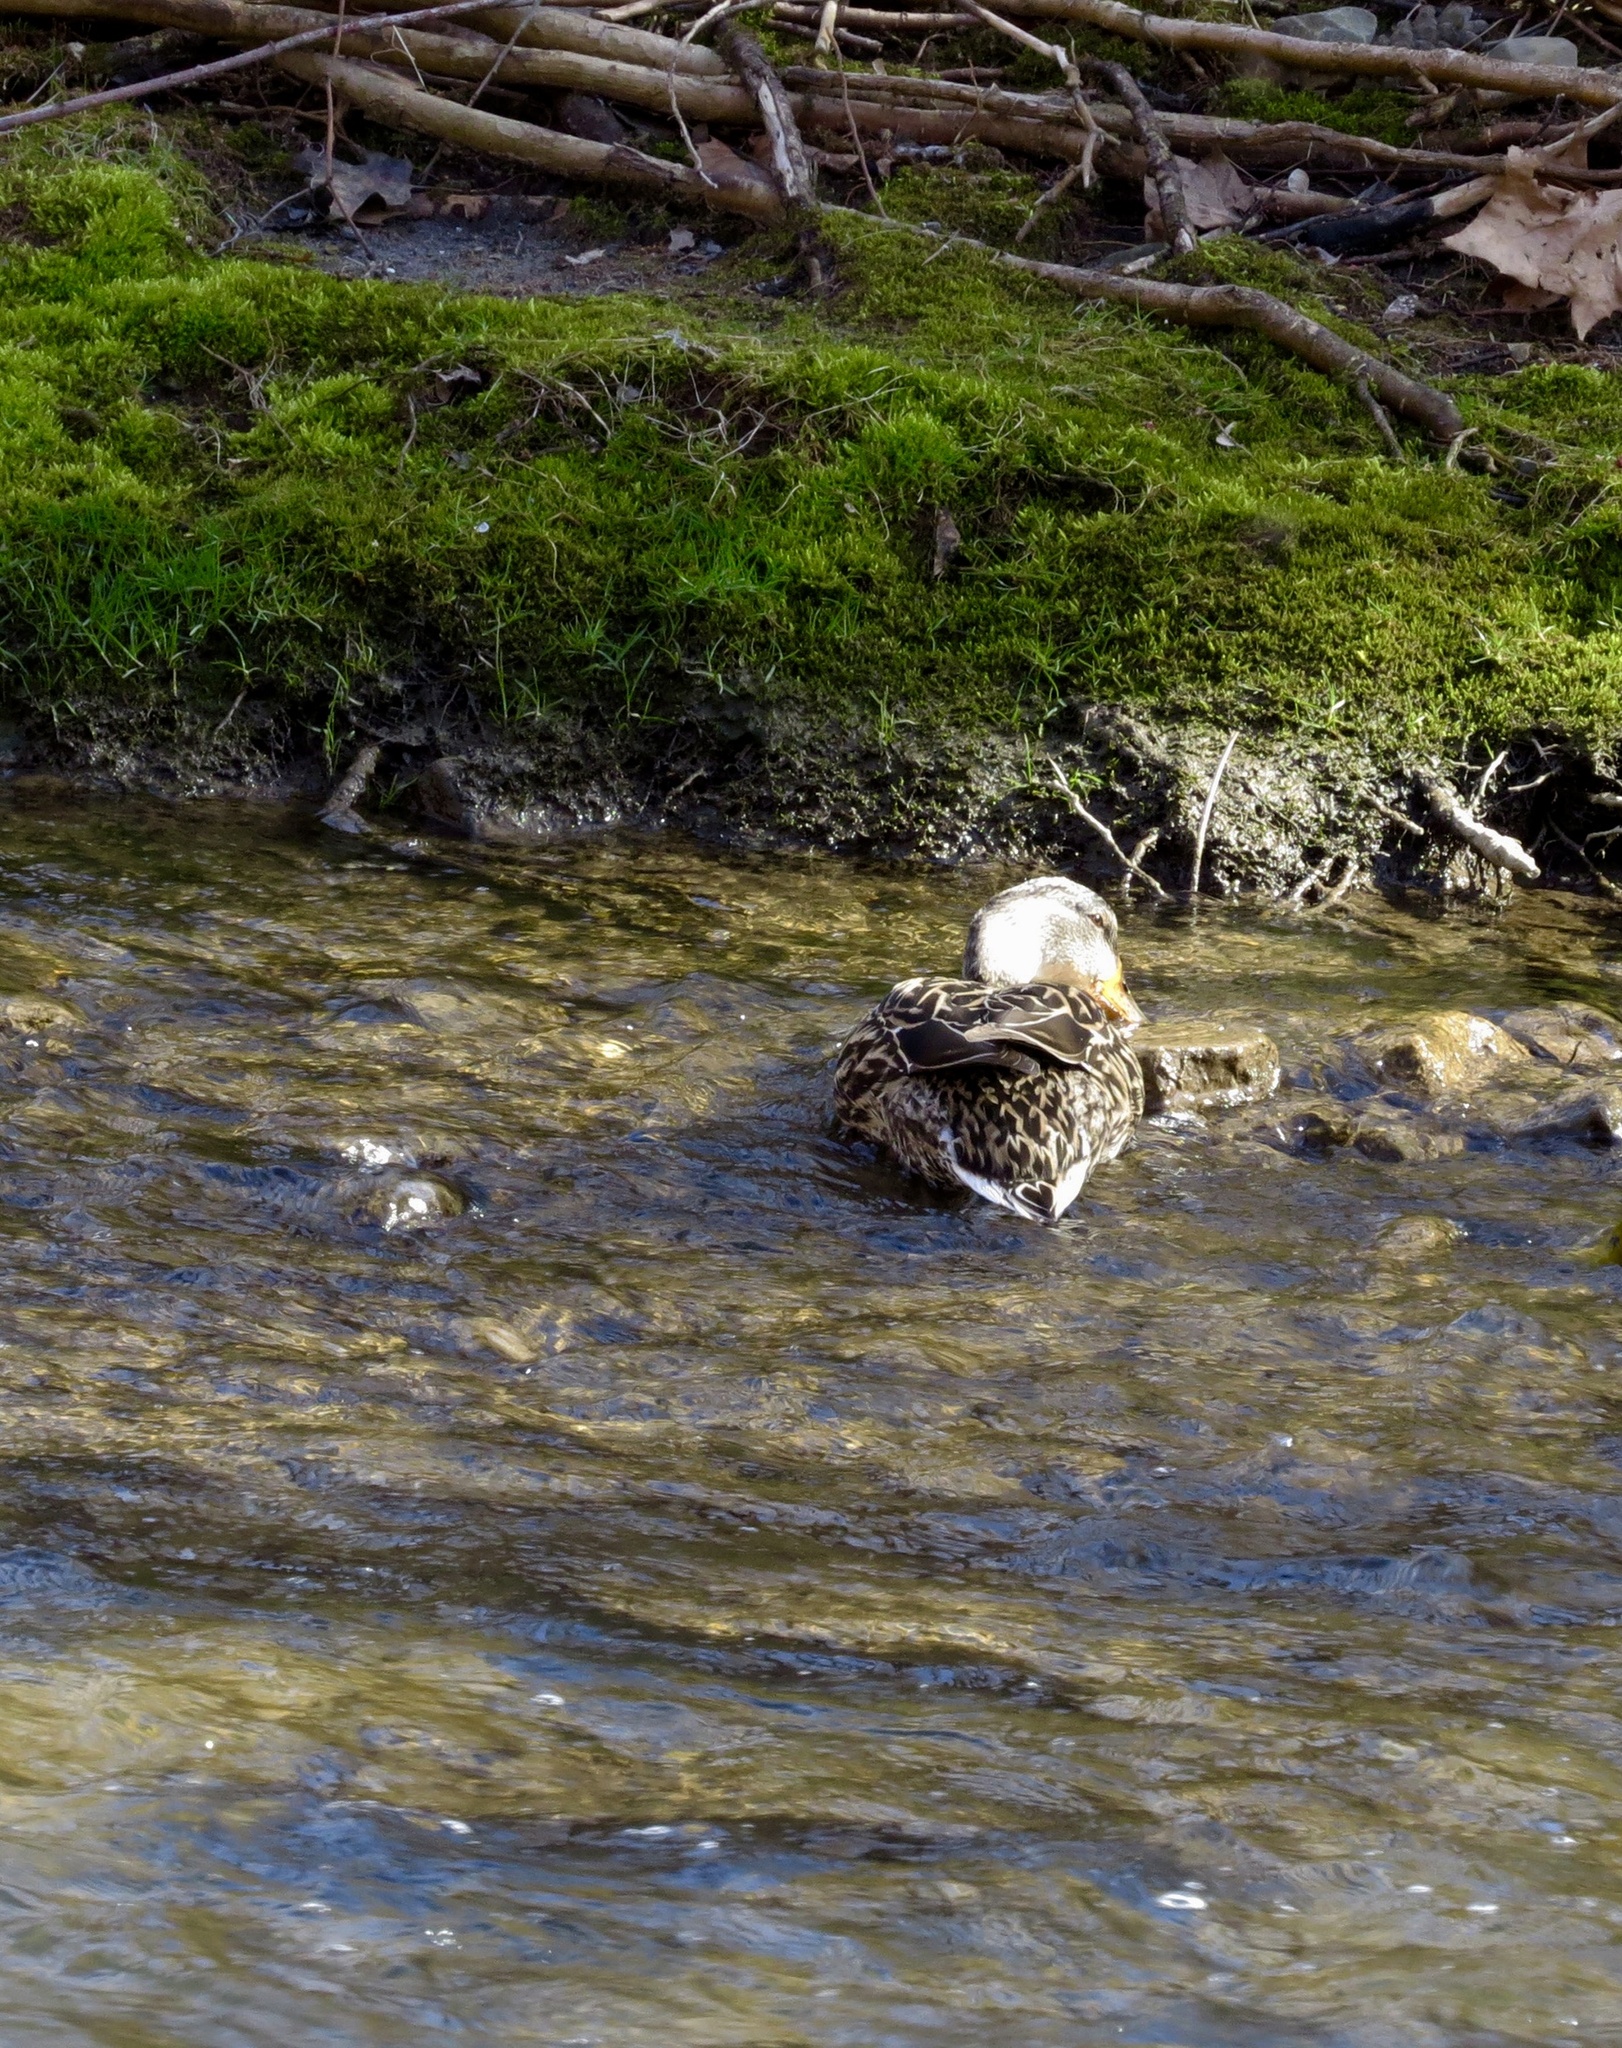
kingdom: Animalia
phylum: Chordata
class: Aves
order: Anseriformes
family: Anatidae
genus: Anas
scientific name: Anas platyrhynchos
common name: Mallard
